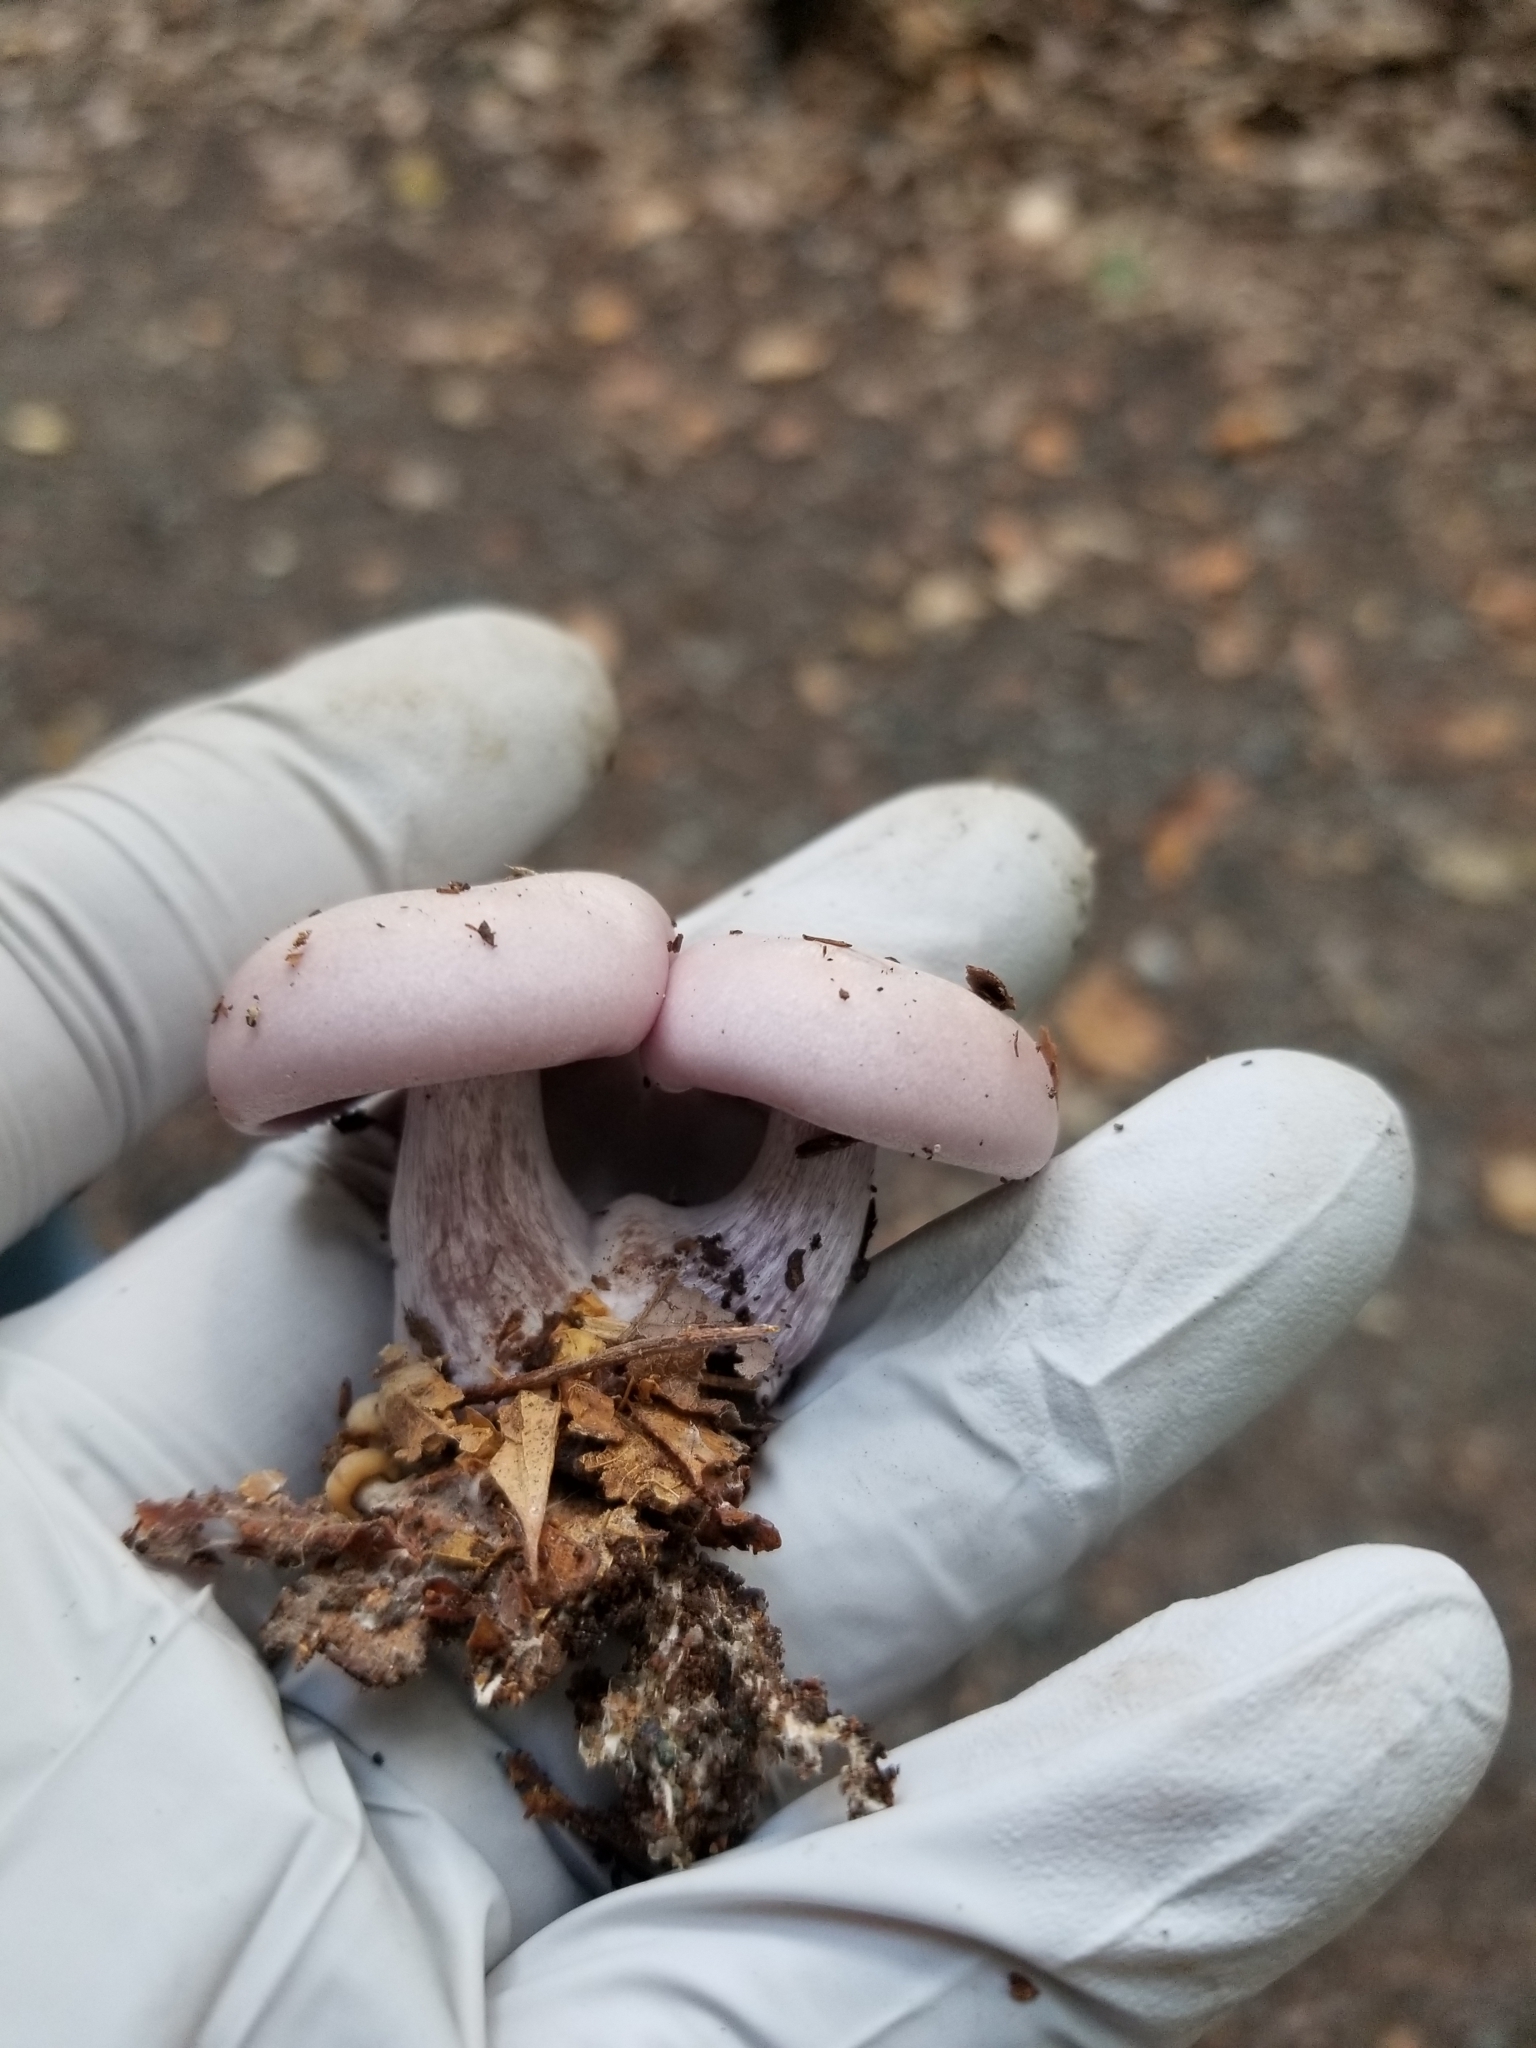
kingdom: Fungi
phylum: Basidiomycota
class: Agaricomycetes
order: Agaricales
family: Tricholomataceae
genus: Collybia
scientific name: Collybia
